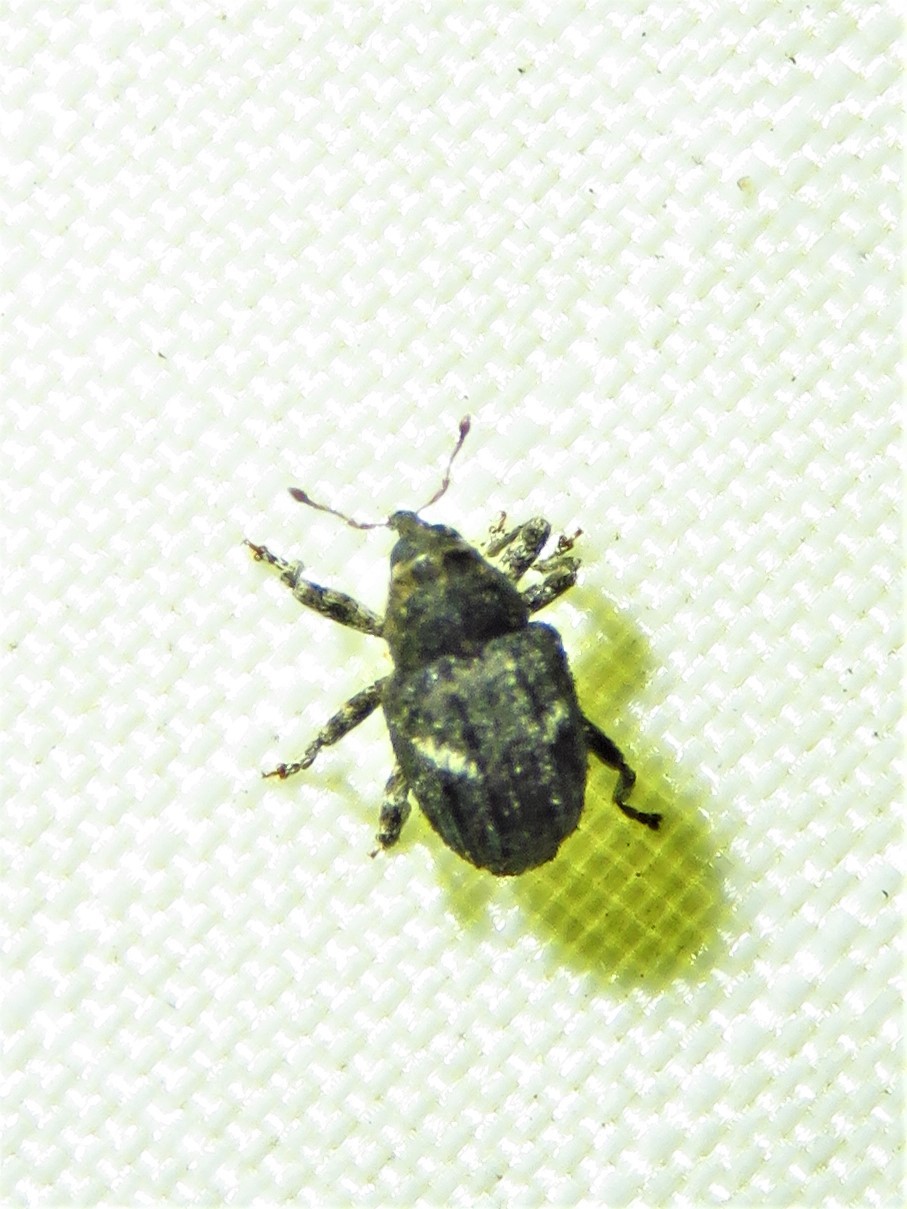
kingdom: Animalia
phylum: Arthropoda
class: Insecta
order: Coleoptera
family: Curculionidae
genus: Eubulus
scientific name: Eubulus bisignatus
